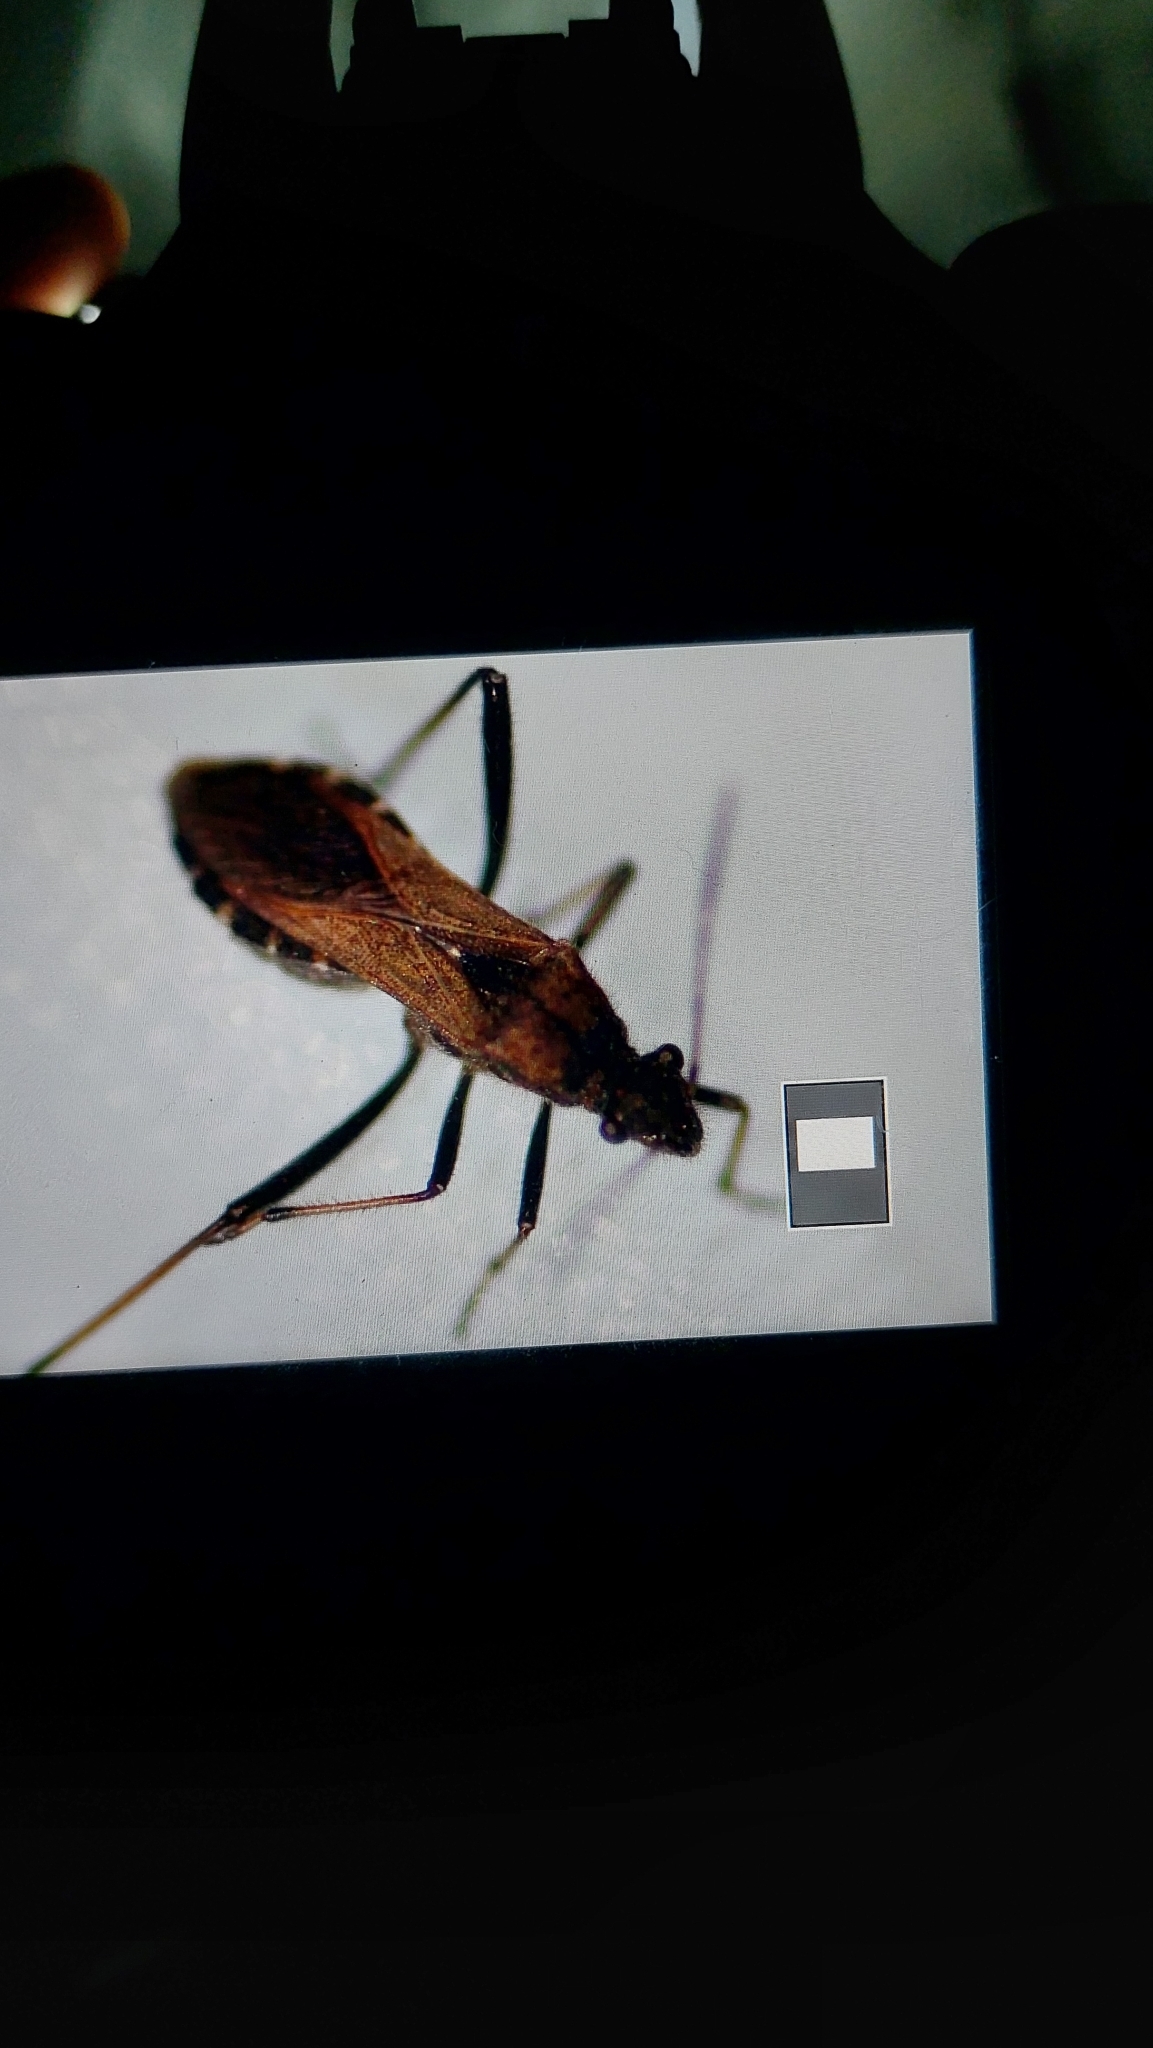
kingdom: Animalia
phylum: Arthropoda
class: Insecta
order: Hemiptera
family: Alydidae
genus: Alydus
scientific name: Alydus calcaratus
